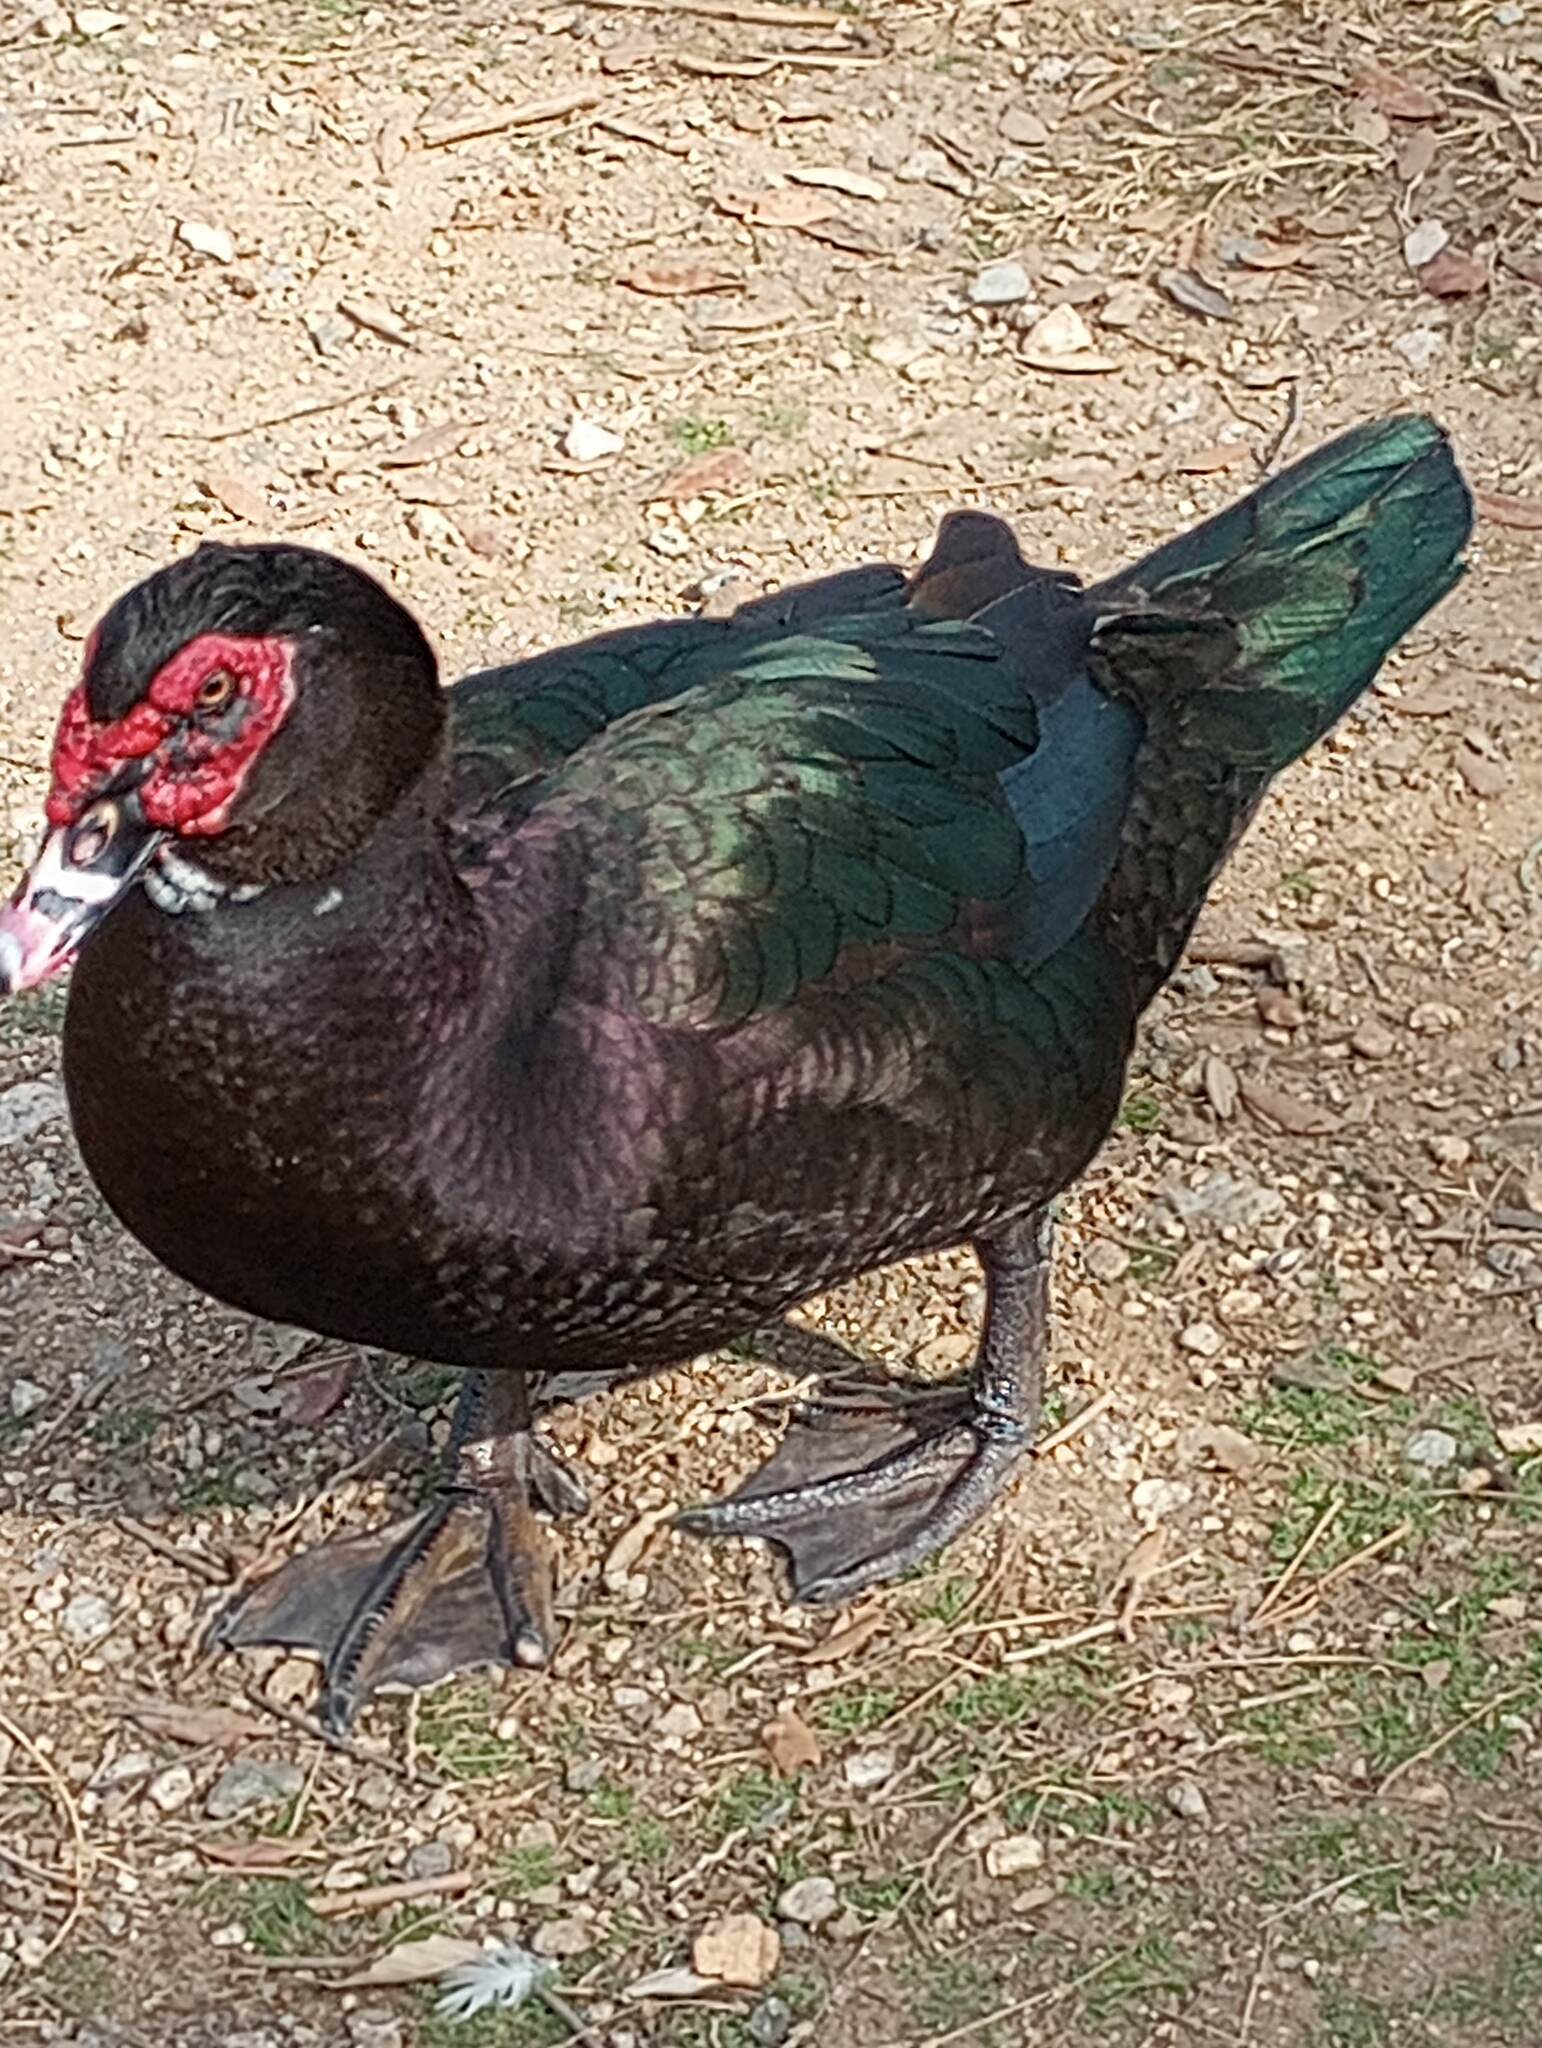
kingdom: Animalia
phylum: Chordata
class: Aves
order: Anseriformes
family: Anatidae
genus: Cairina
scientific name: Cairina moschata
